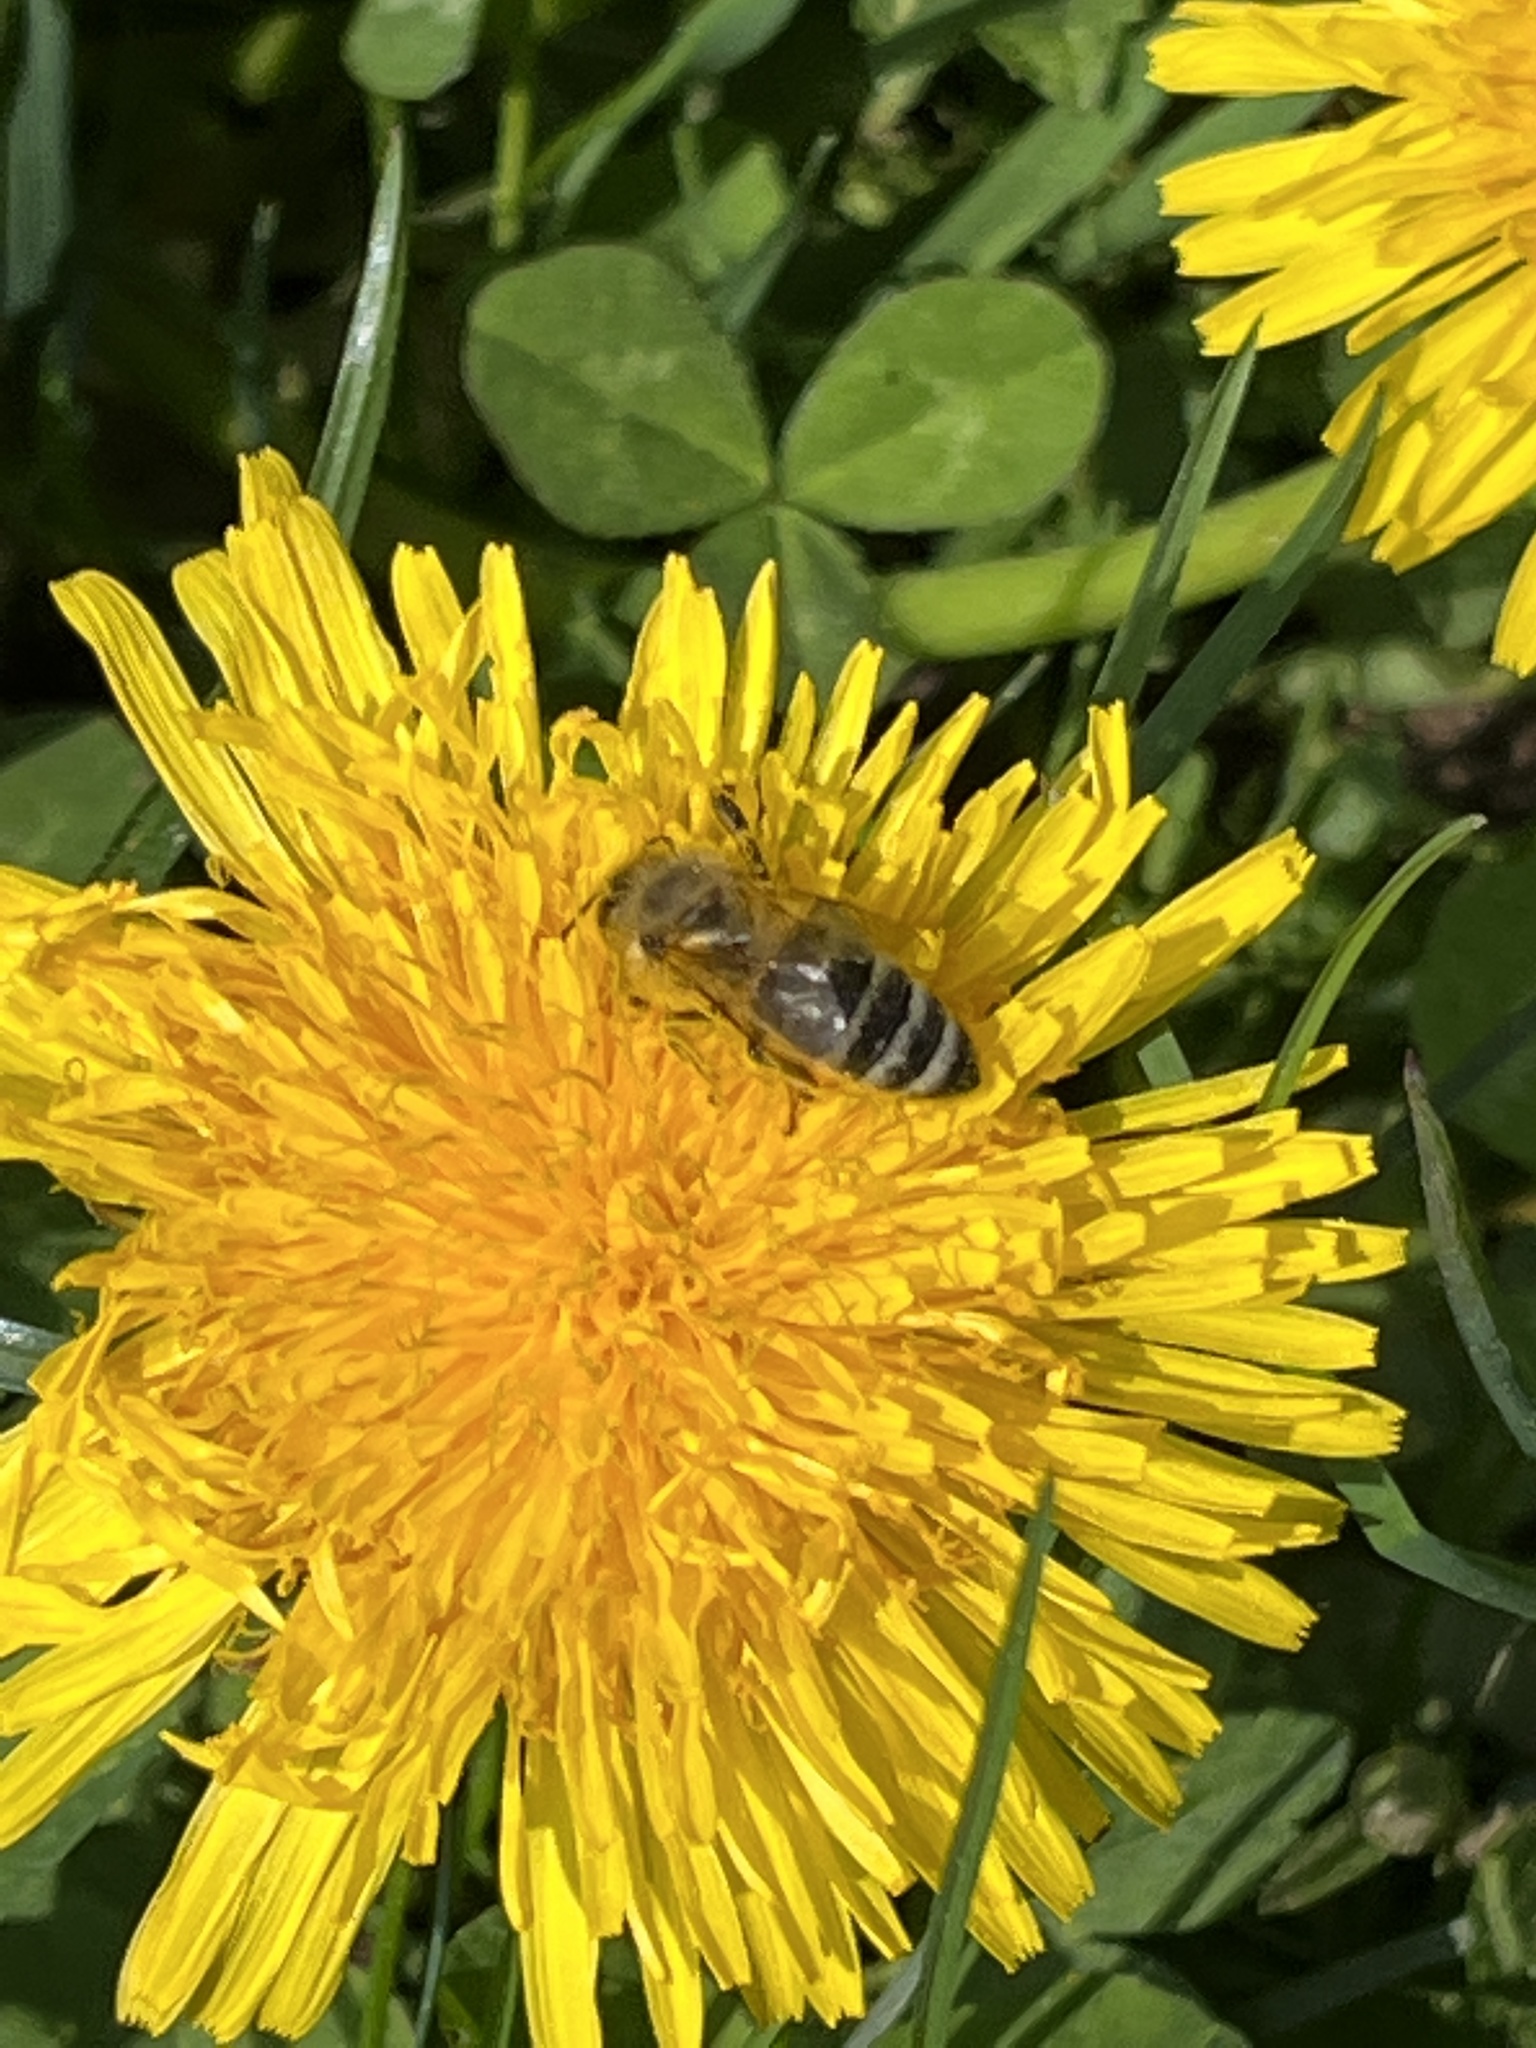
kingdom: Animalia
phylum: Arthropoda
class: Insecta
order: Hymenoptera
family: Apidae
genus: Apis
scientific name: Apis mellifera
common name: Honey bee
